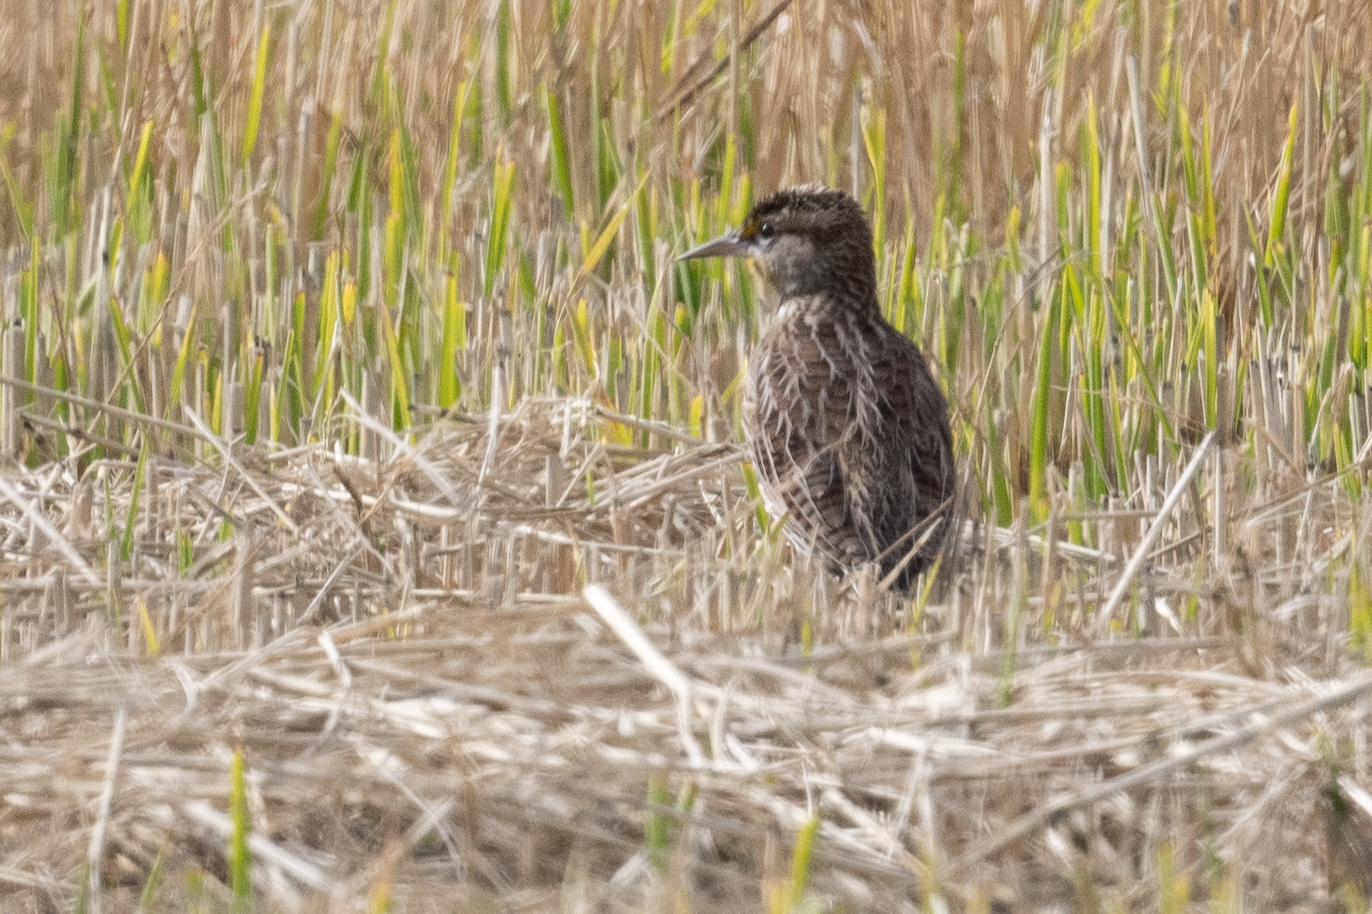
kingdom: Animalia
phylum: Chordata
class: Aves
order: Passeriformes
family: Icteridae
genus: Sturnella
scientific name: Sturnella neglecta
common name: Western meadowlark
